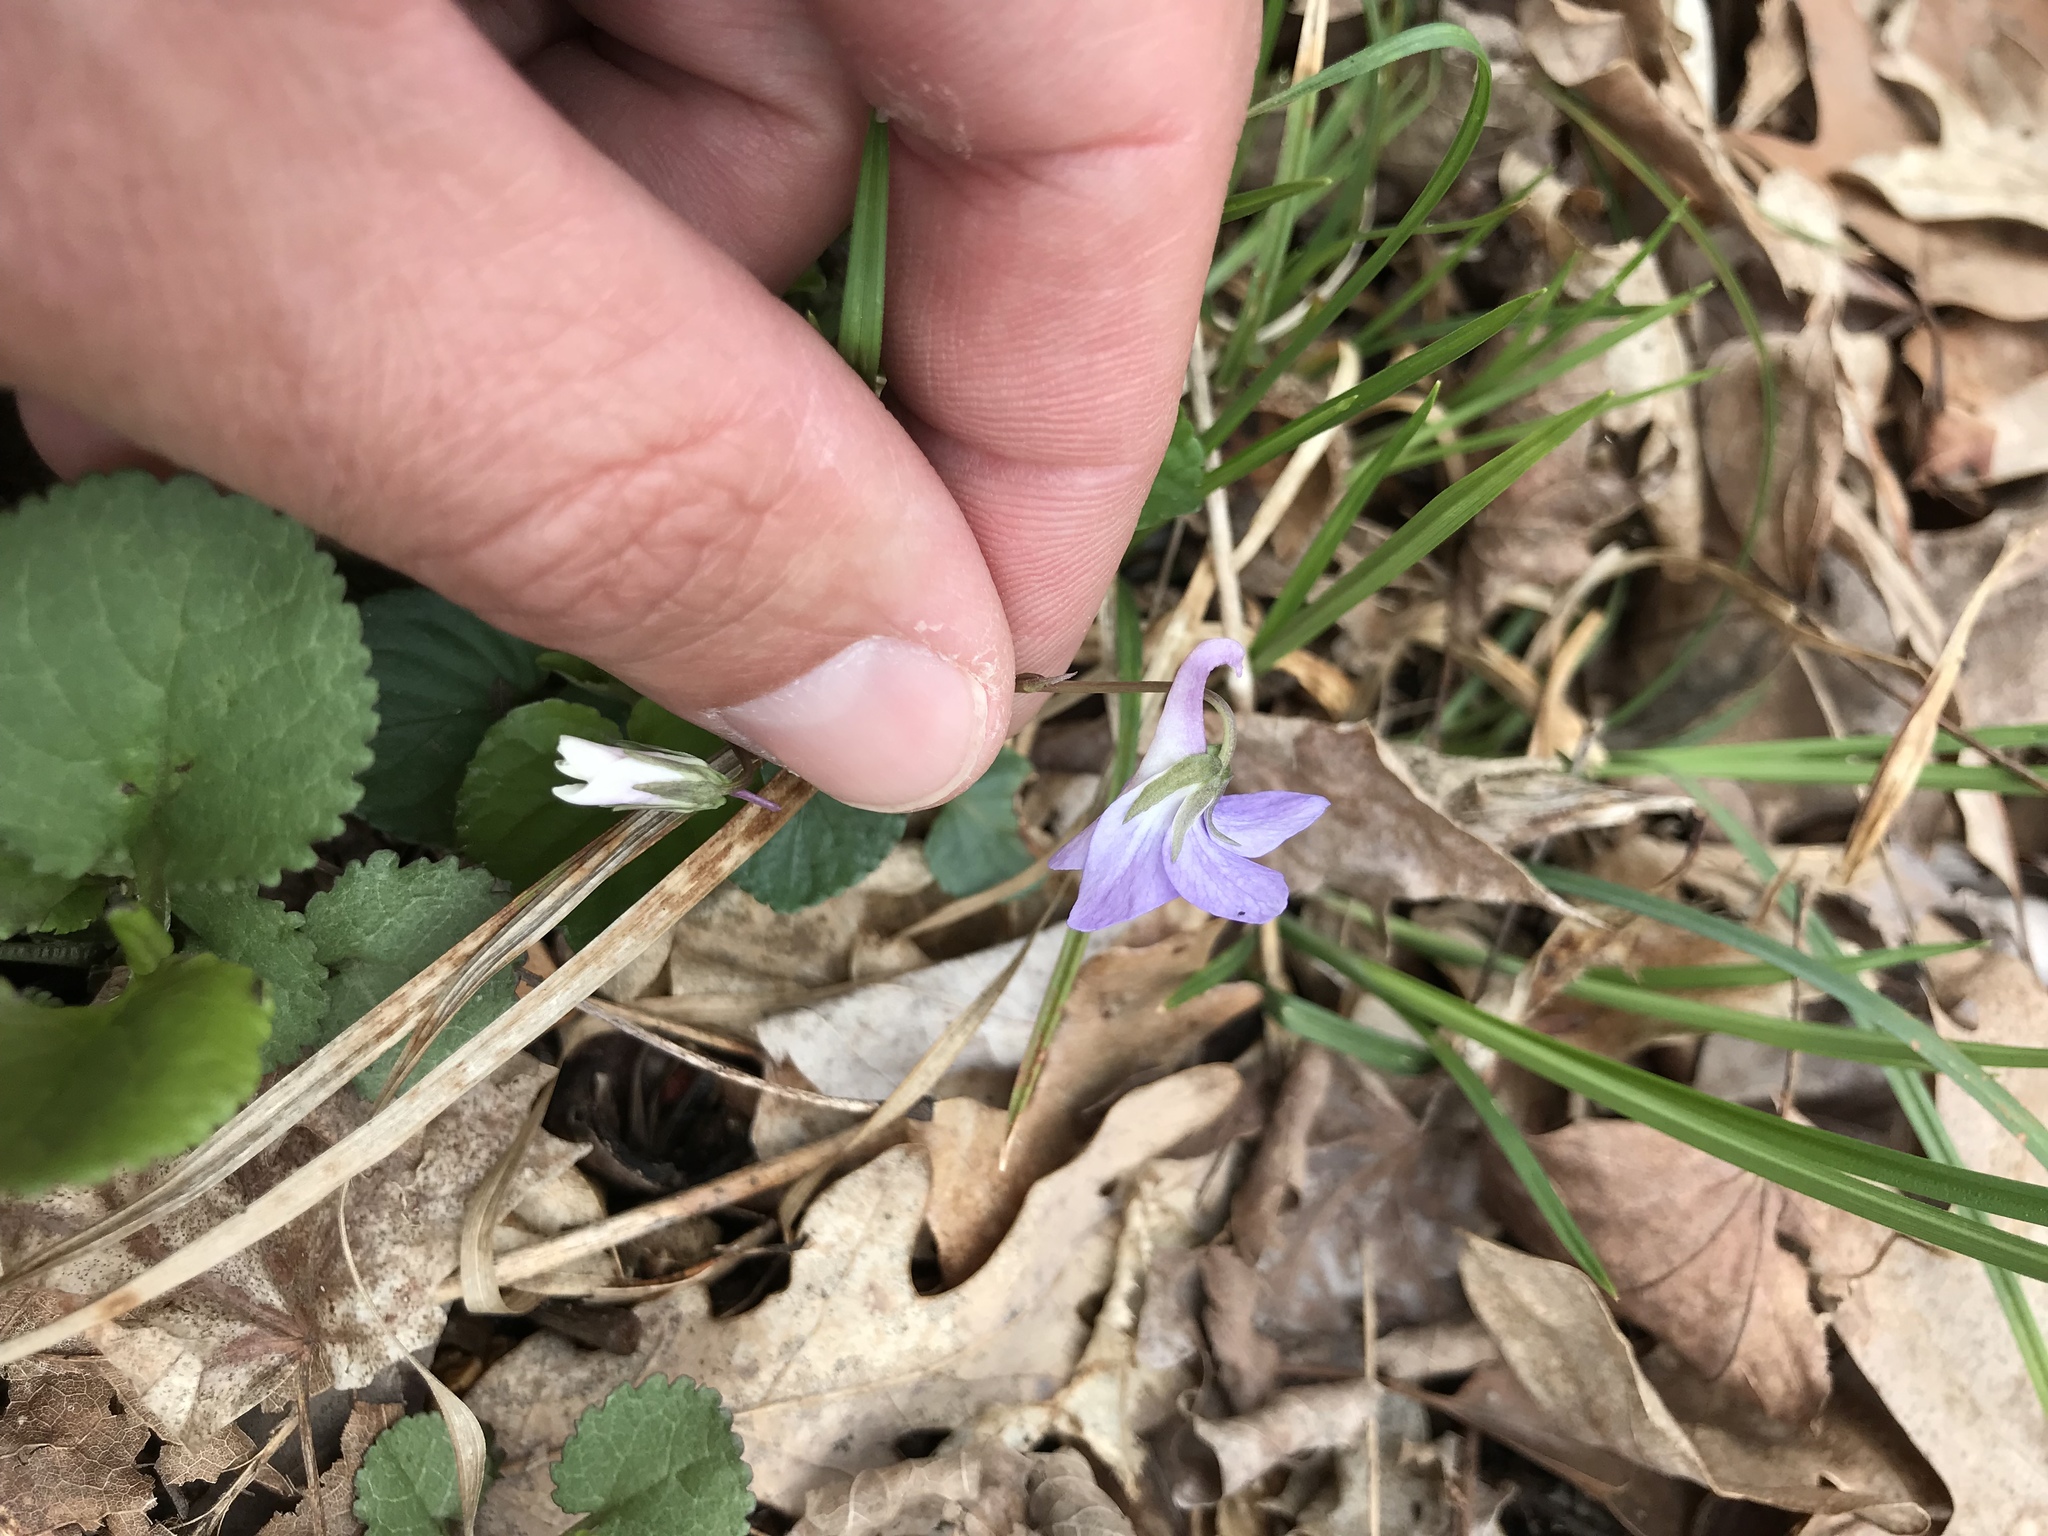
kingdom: Plantae
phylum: Tracheophyta
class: Magnoliopsida
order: Malpighiales
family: Violaceae
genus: Viola
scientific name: Viola rostrata
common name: Long-spur violet
